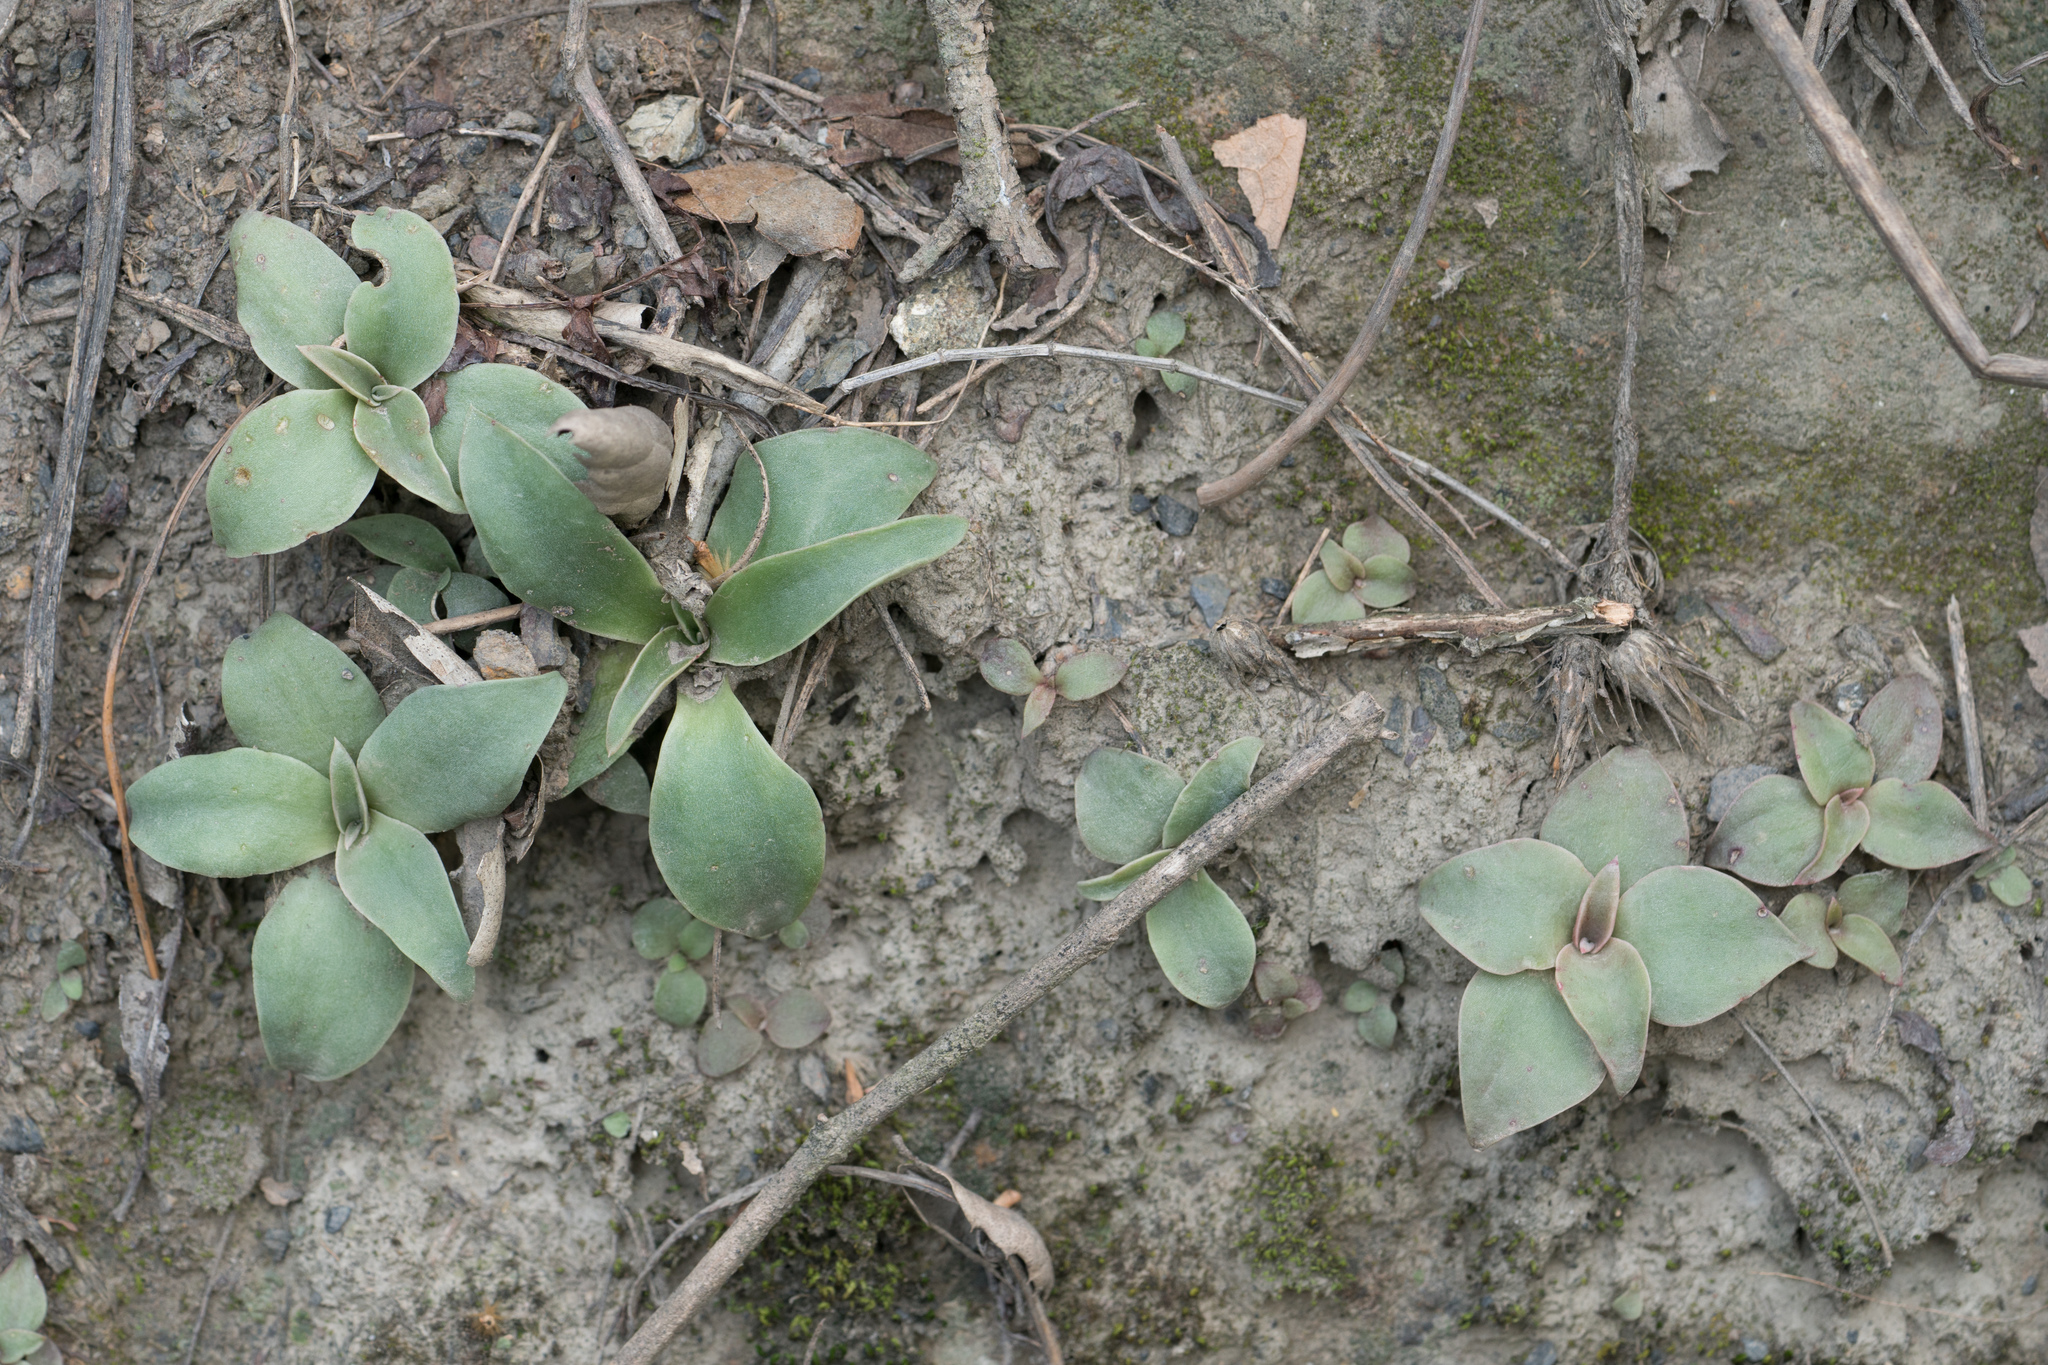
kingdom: Plantae
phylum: Tracheophyta
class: Magnoliopsida
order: Saxifragales
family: Crassulaceae
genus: Dudleya
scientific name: Dudleya lanceolata
